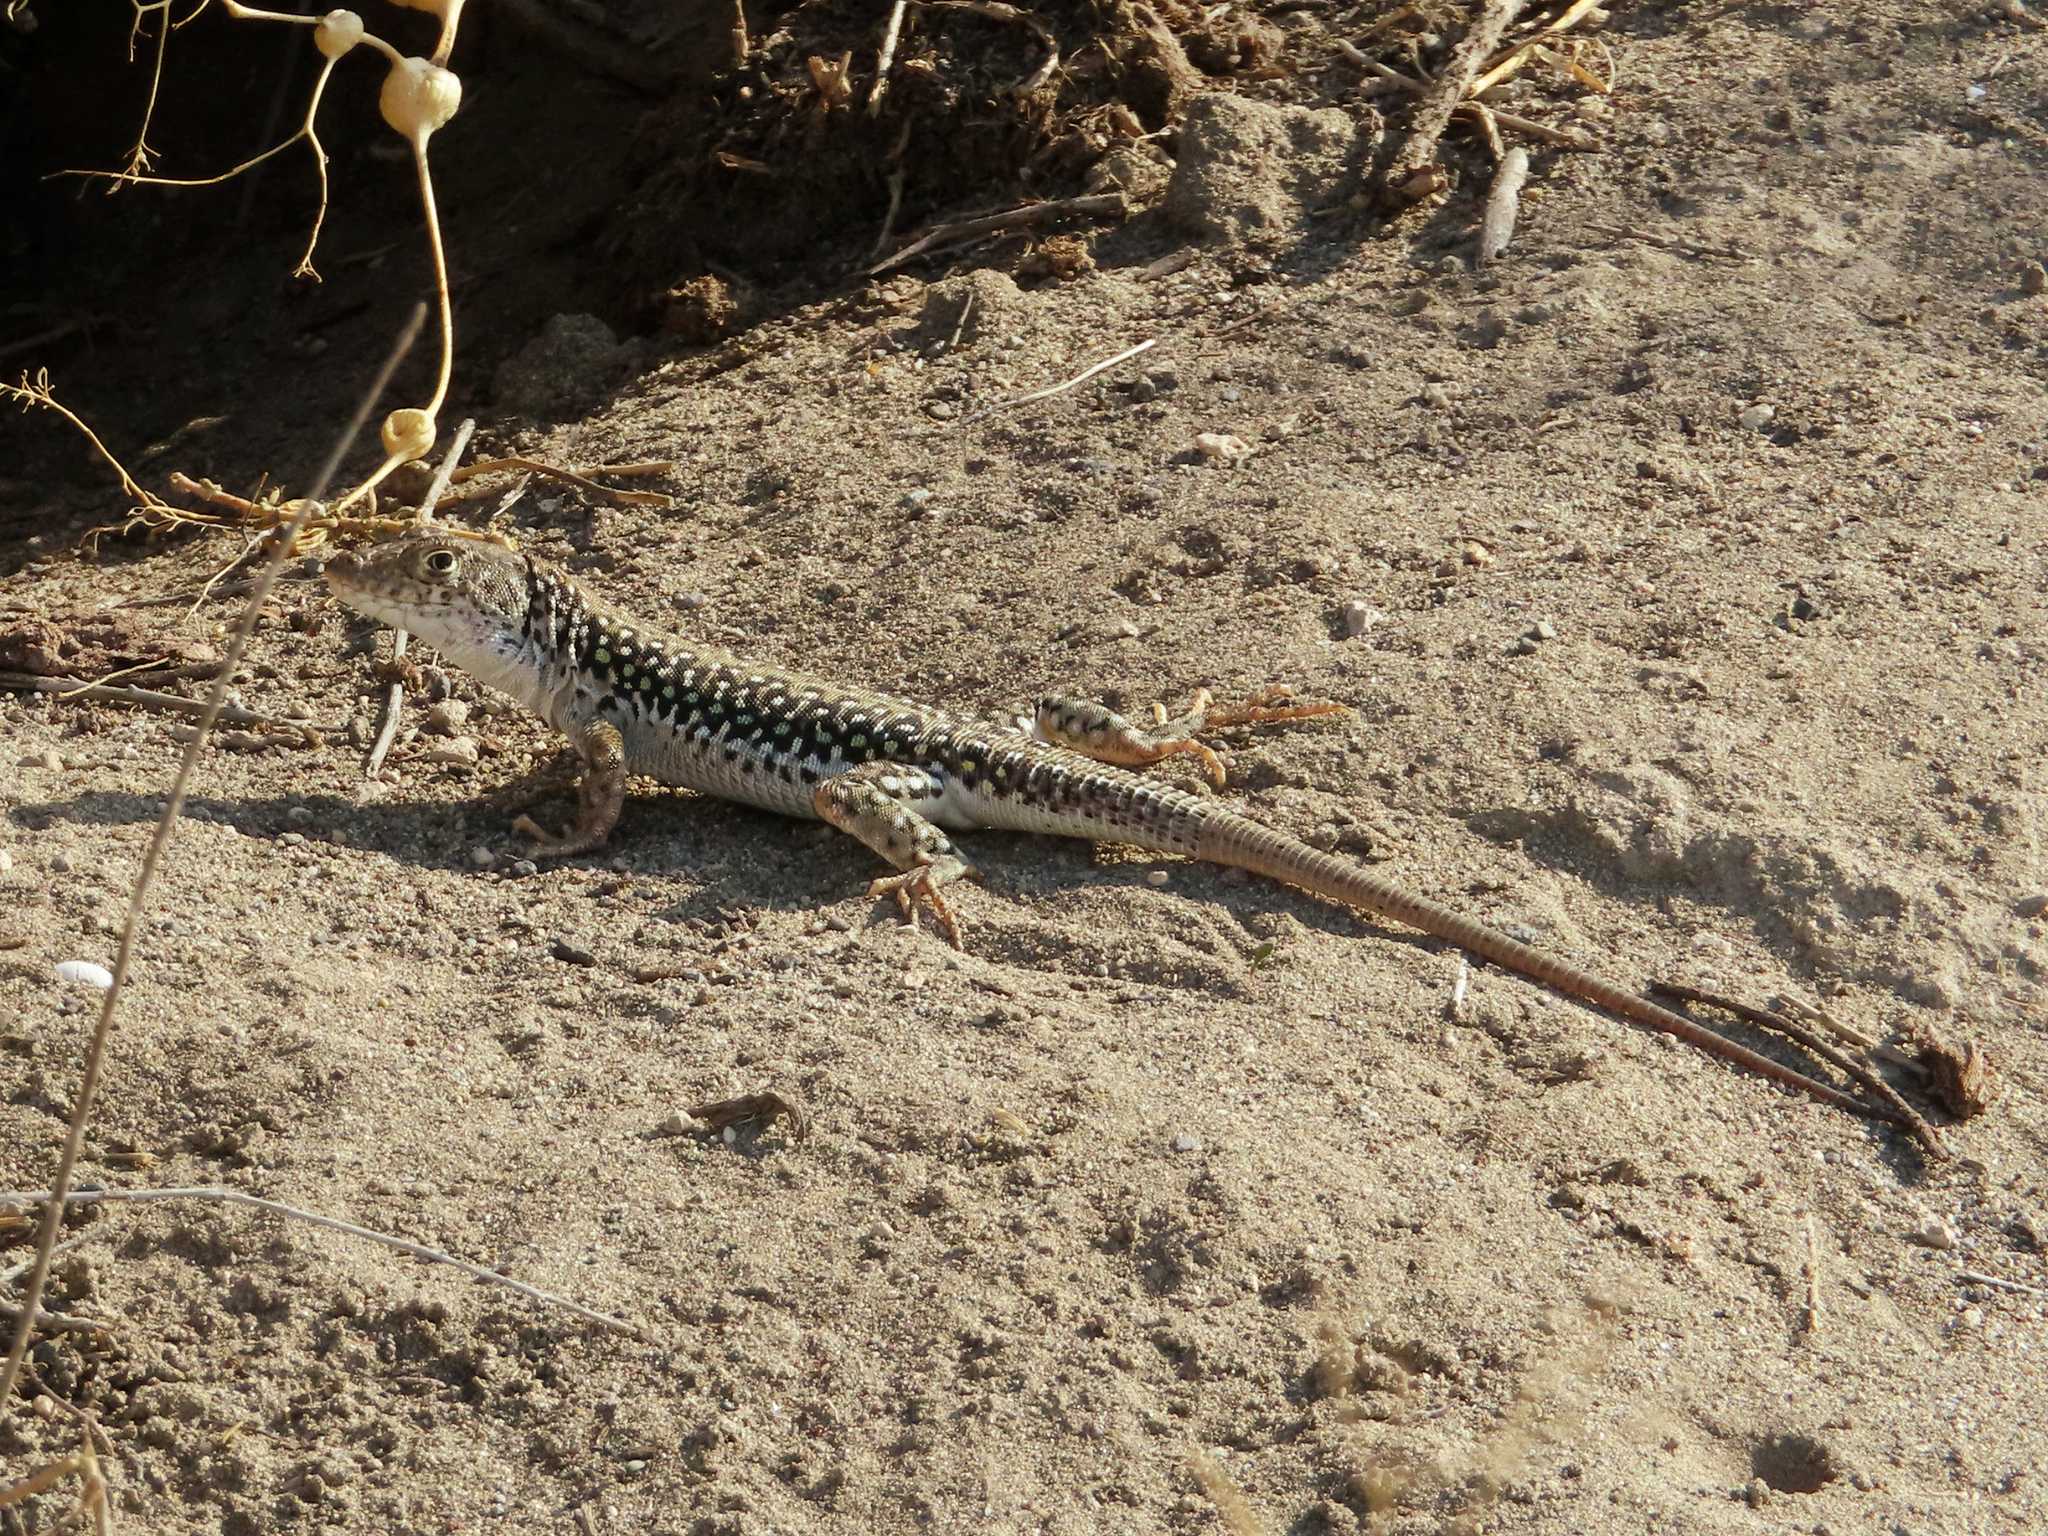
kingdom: Animalia
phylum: Chordata
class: Squamata
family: Lacertidae
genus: Eremias
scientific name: Eremias strauchi
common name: Strauch's racerunner
